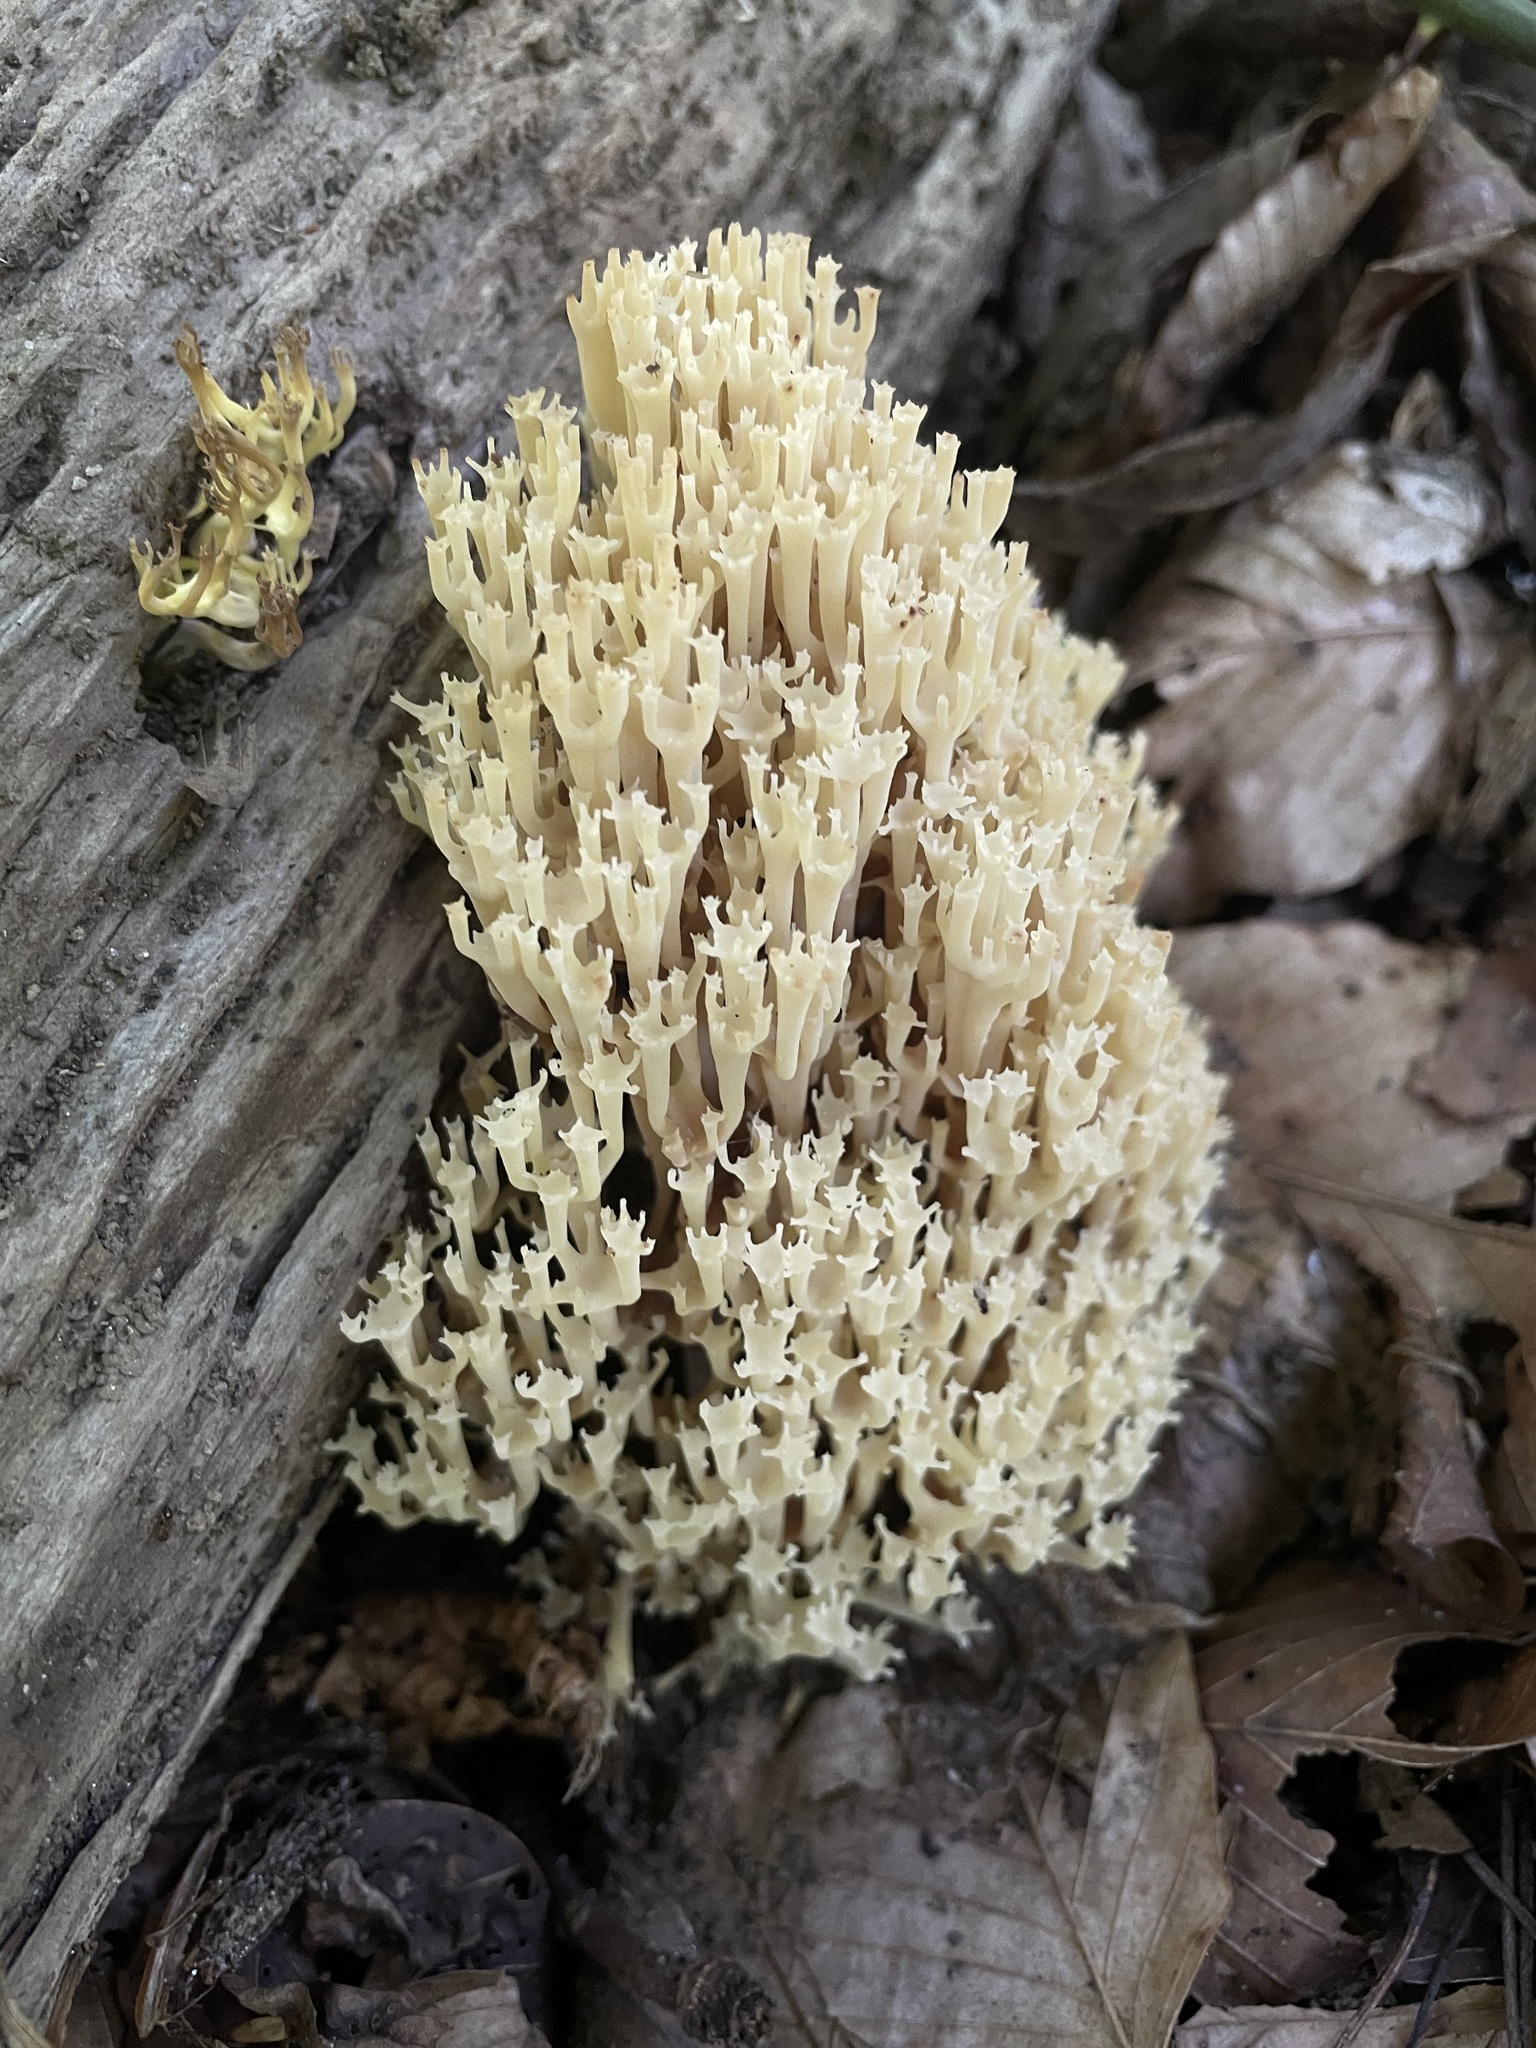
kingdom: Fungi
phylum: Basidiomycota
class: Agaricomycetes
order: Russulales
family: Auriscalpiaceae
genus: Artomyces
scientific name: Artomyces pyxidatus
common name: Crown-tipped coral fungus
